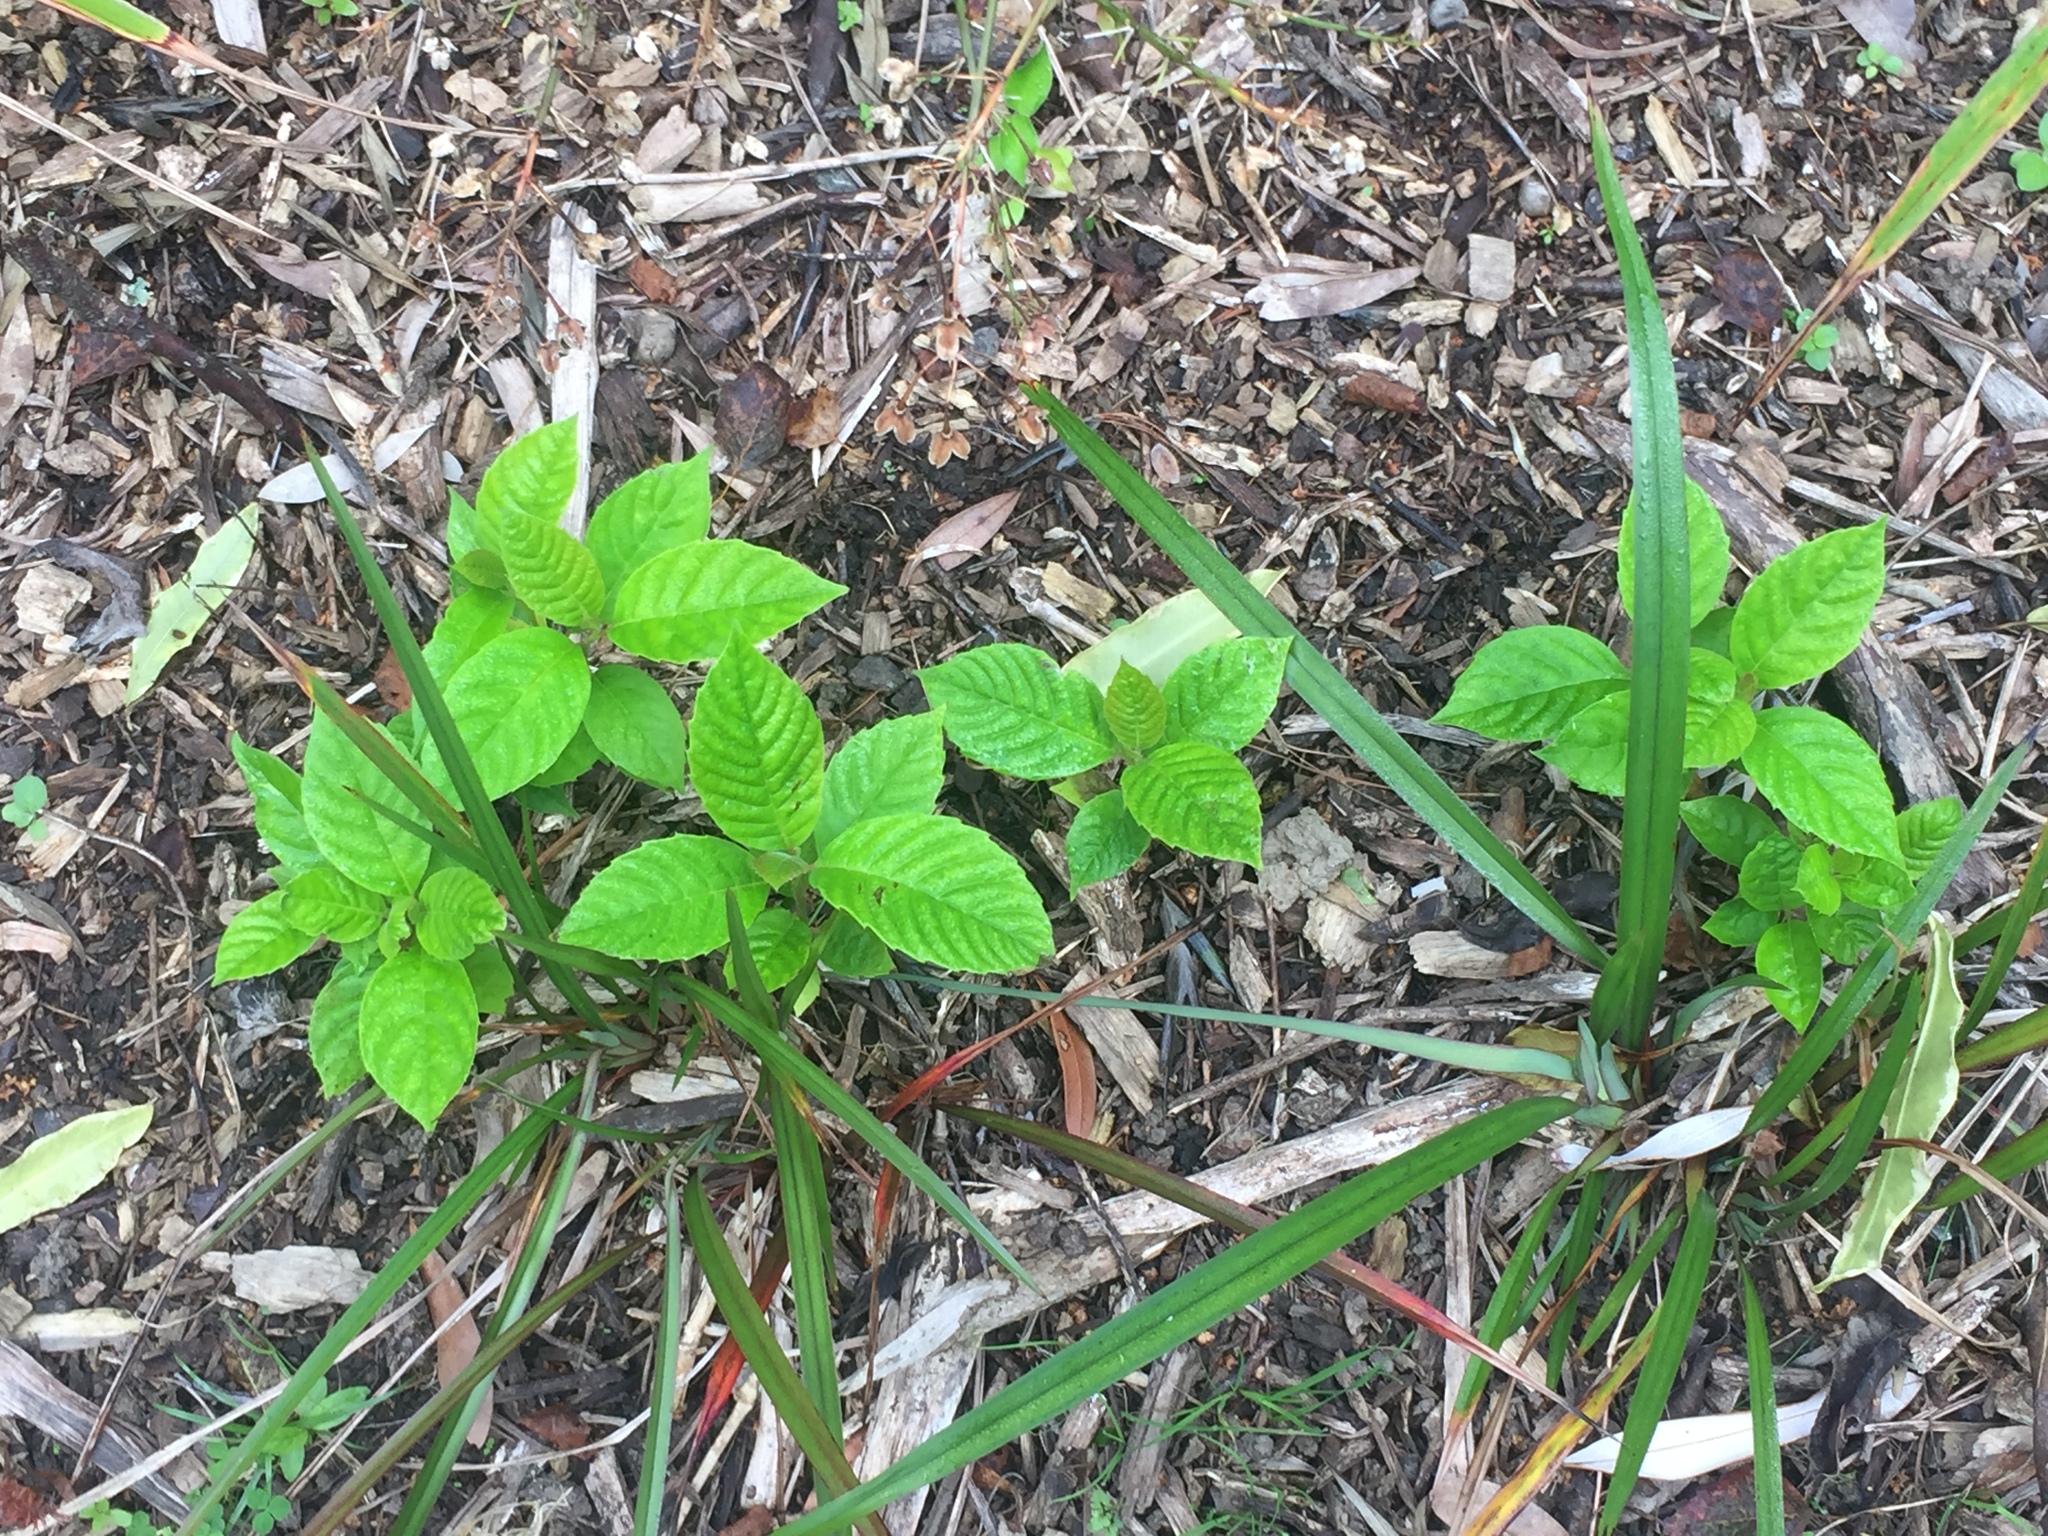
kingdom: Plantae
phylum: Tracheophyta
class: Magnoliopsida
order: Cornales
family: Nyssaceae
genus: Camptotheca
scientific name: Camptotheca acuminata
